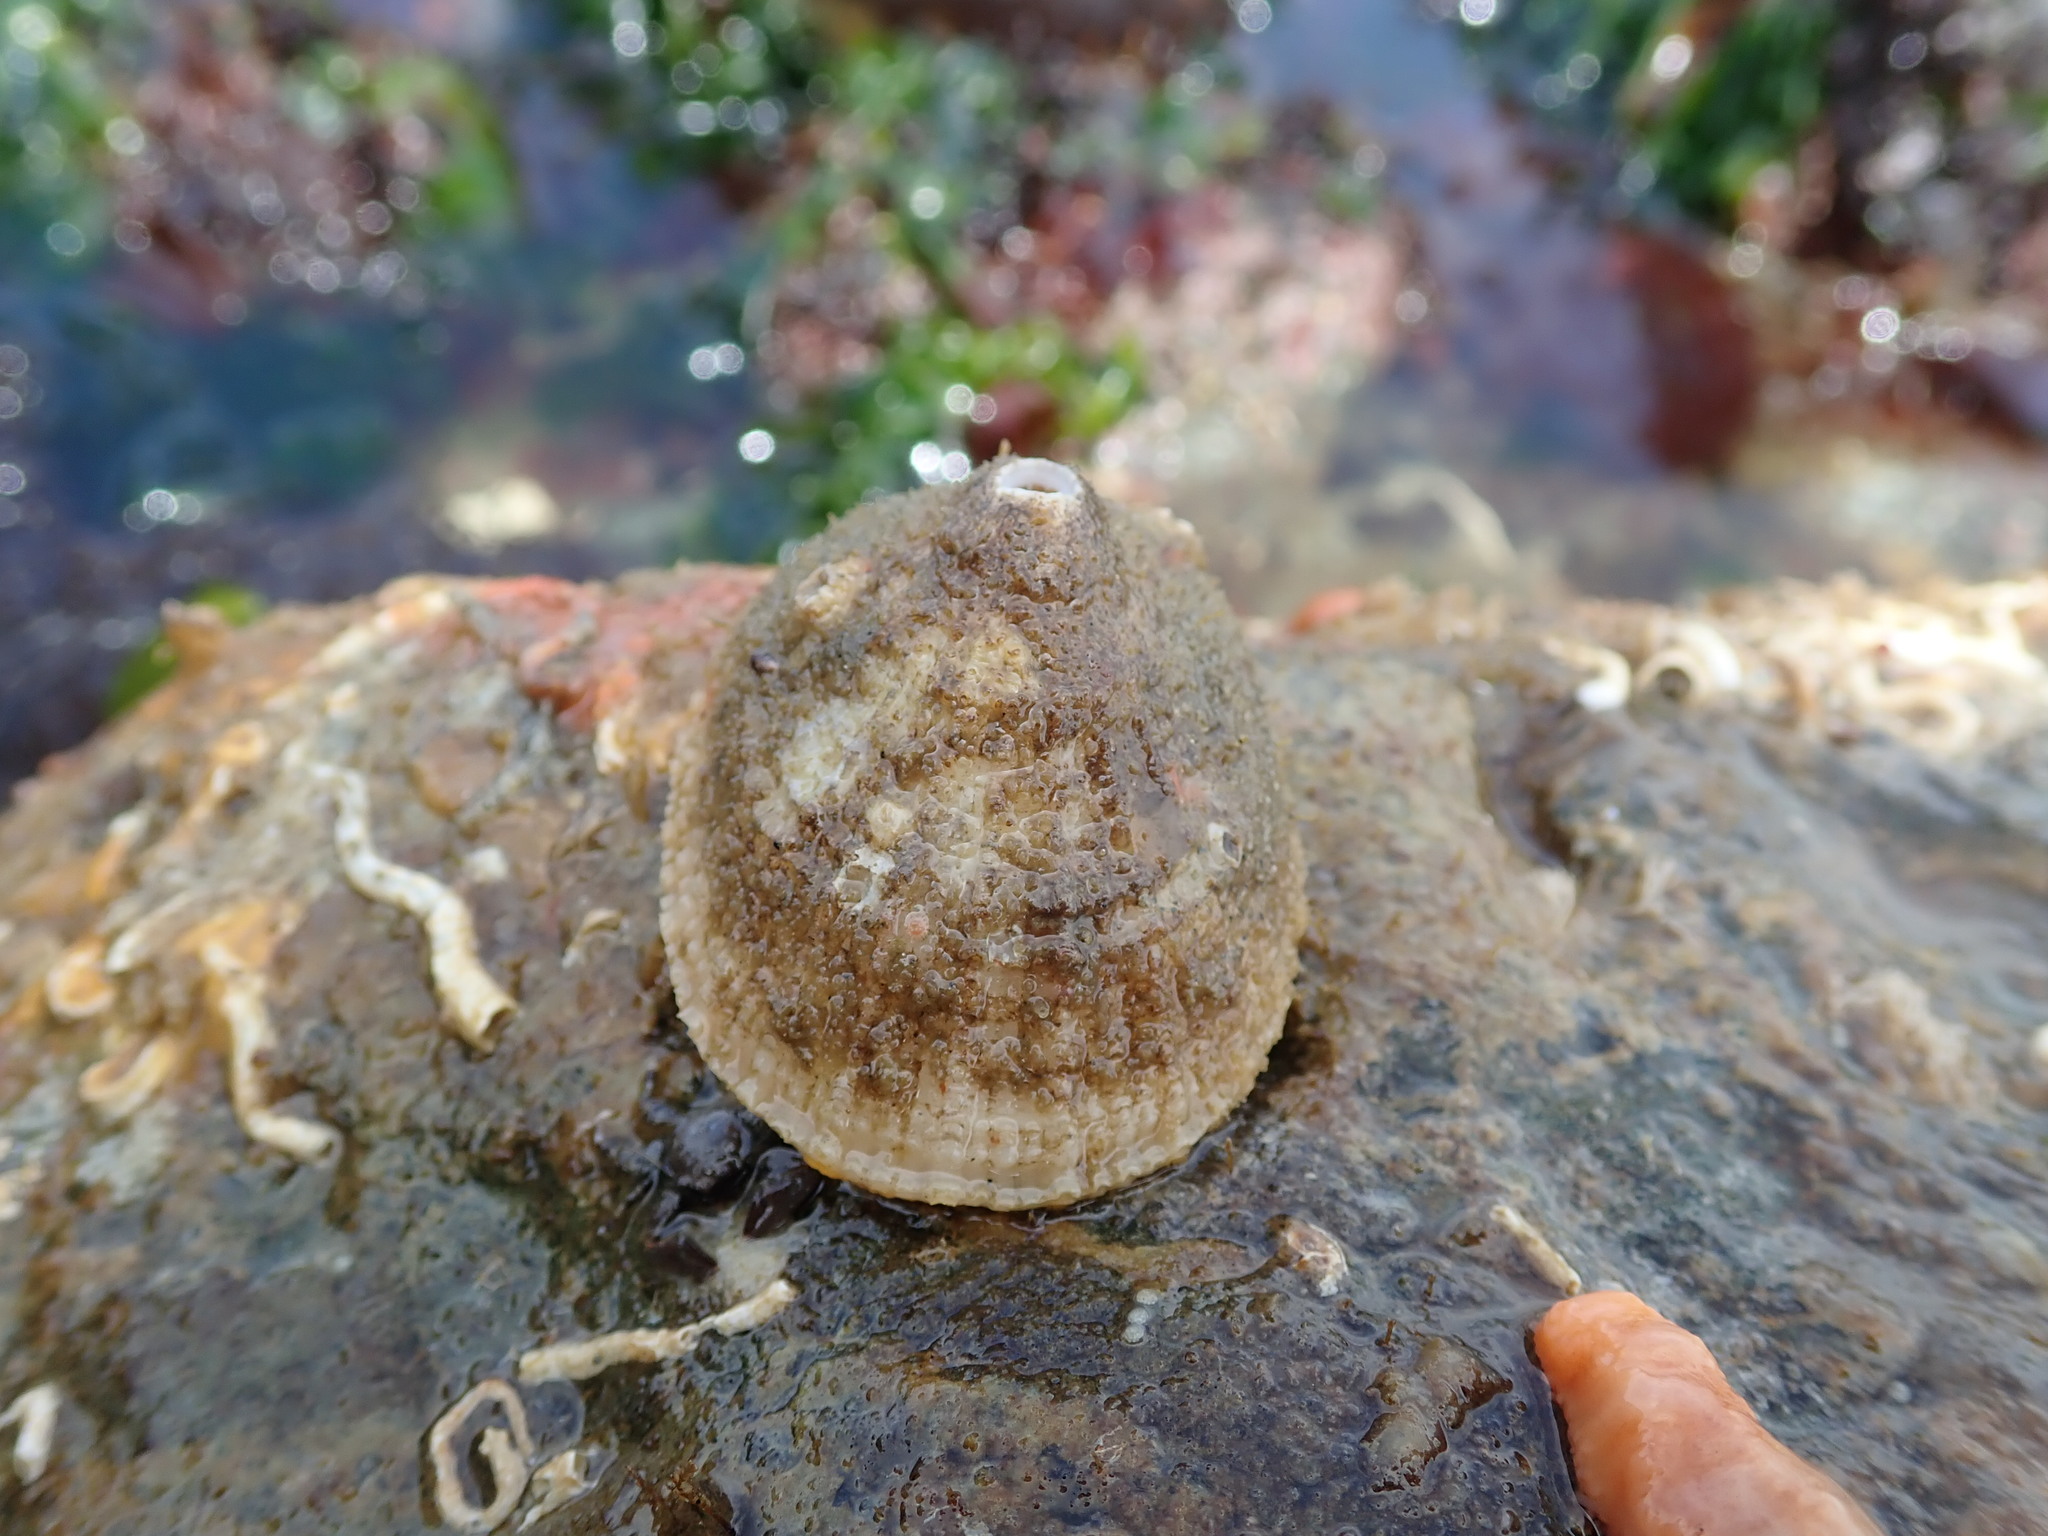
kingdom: Animalia
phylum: Mollusca
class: Gastropoda
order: Lepetellida
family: Fissurellidae
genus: Diodora
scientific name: Diodora aspera
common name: Rough keyhole limpet
